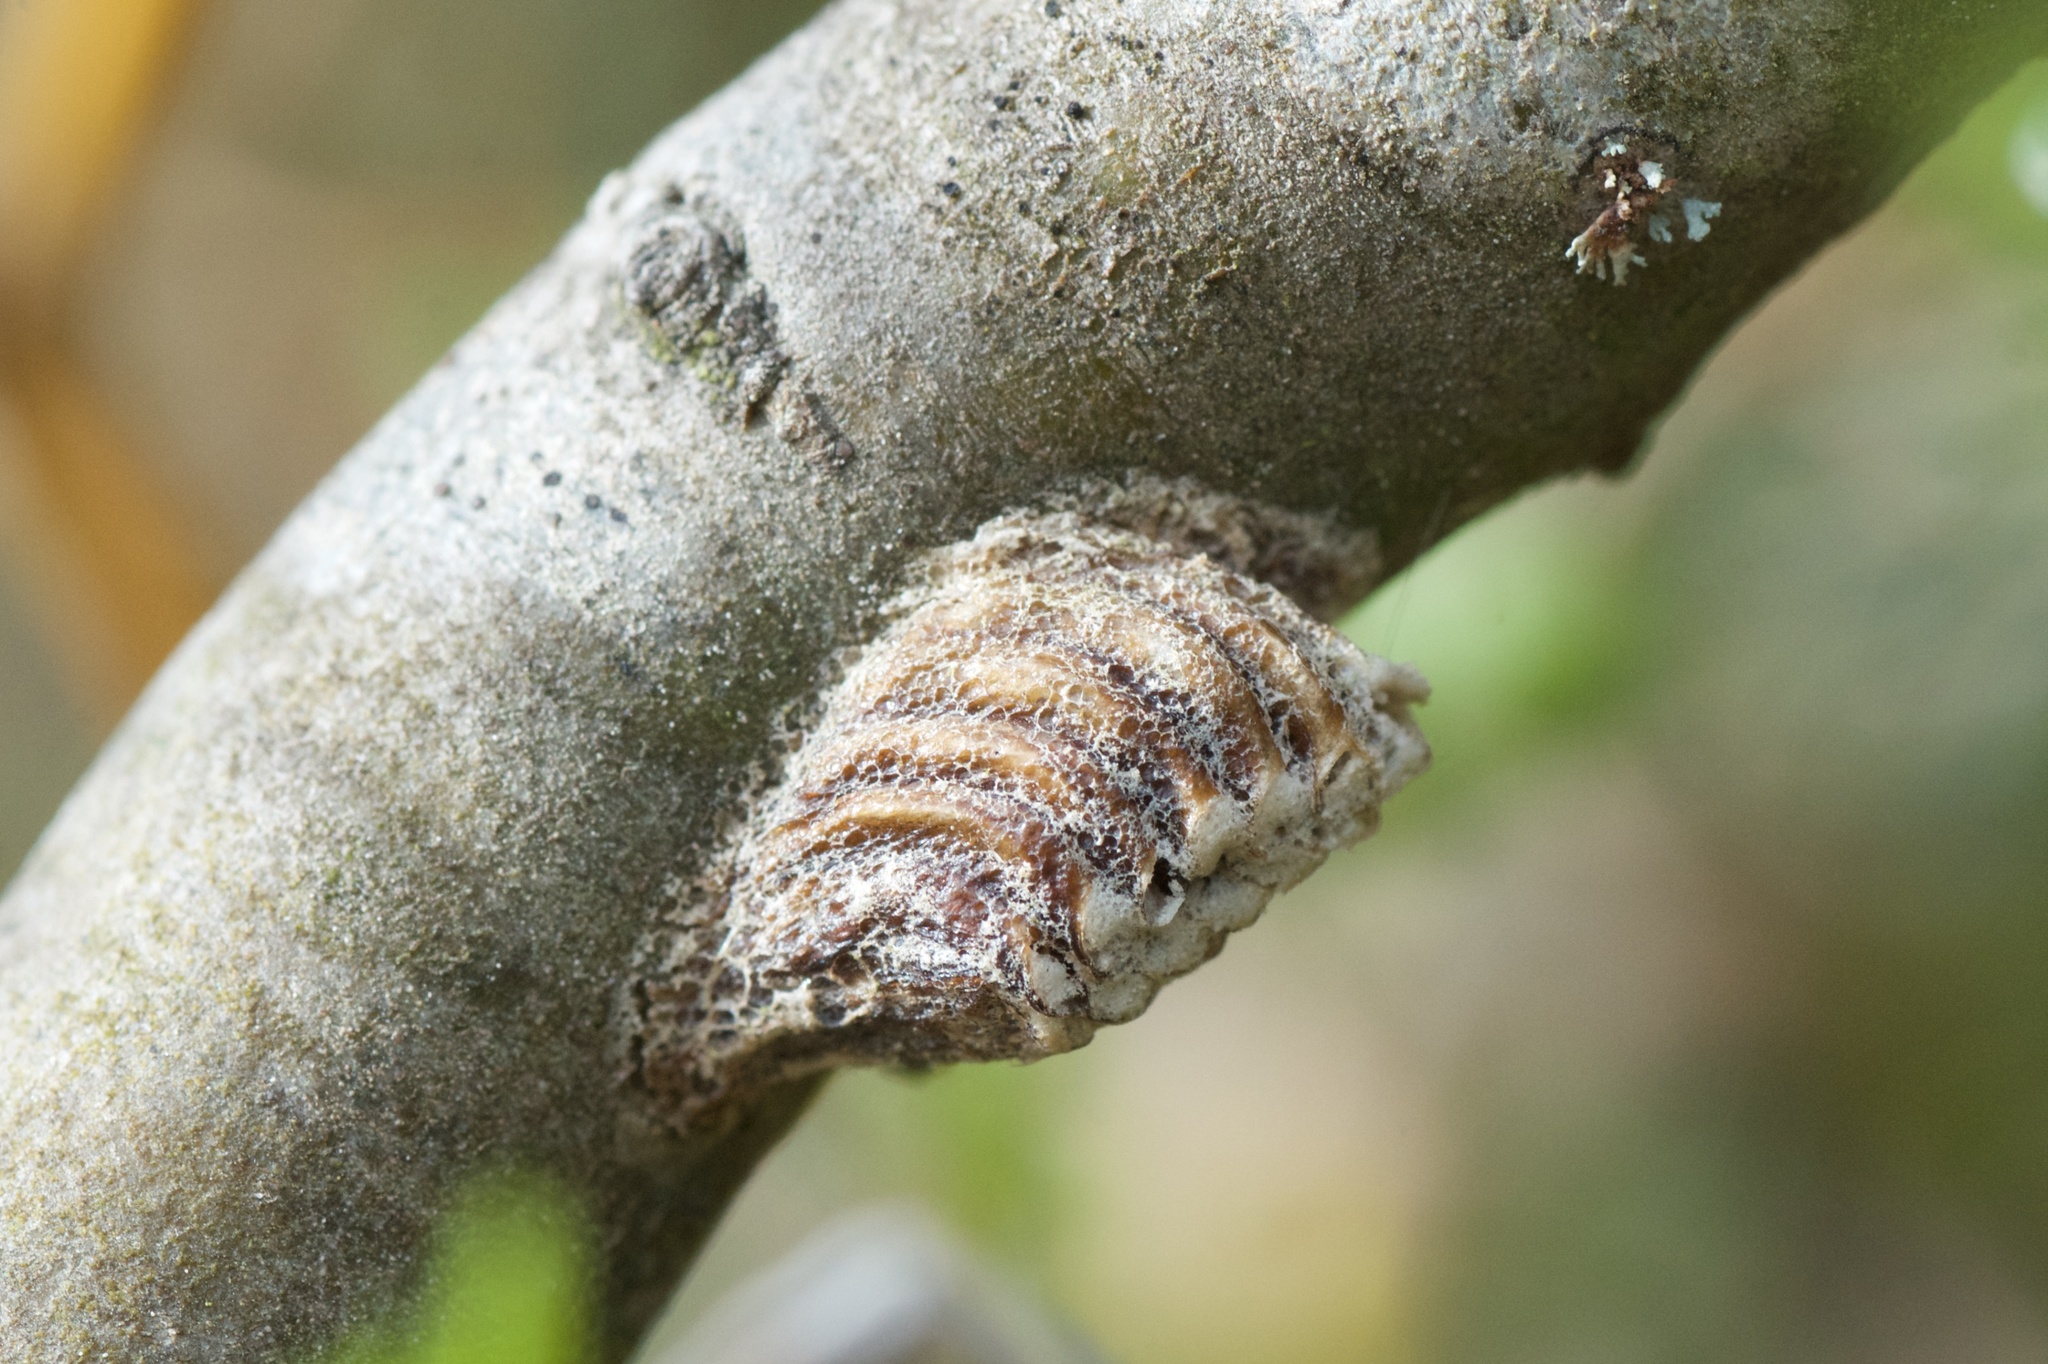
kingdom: Animalia
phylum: Arthropoda
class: Insecta
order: Mantodea
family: Mantidae
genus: Orthodera
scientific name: Orthodera novaezealandiae
